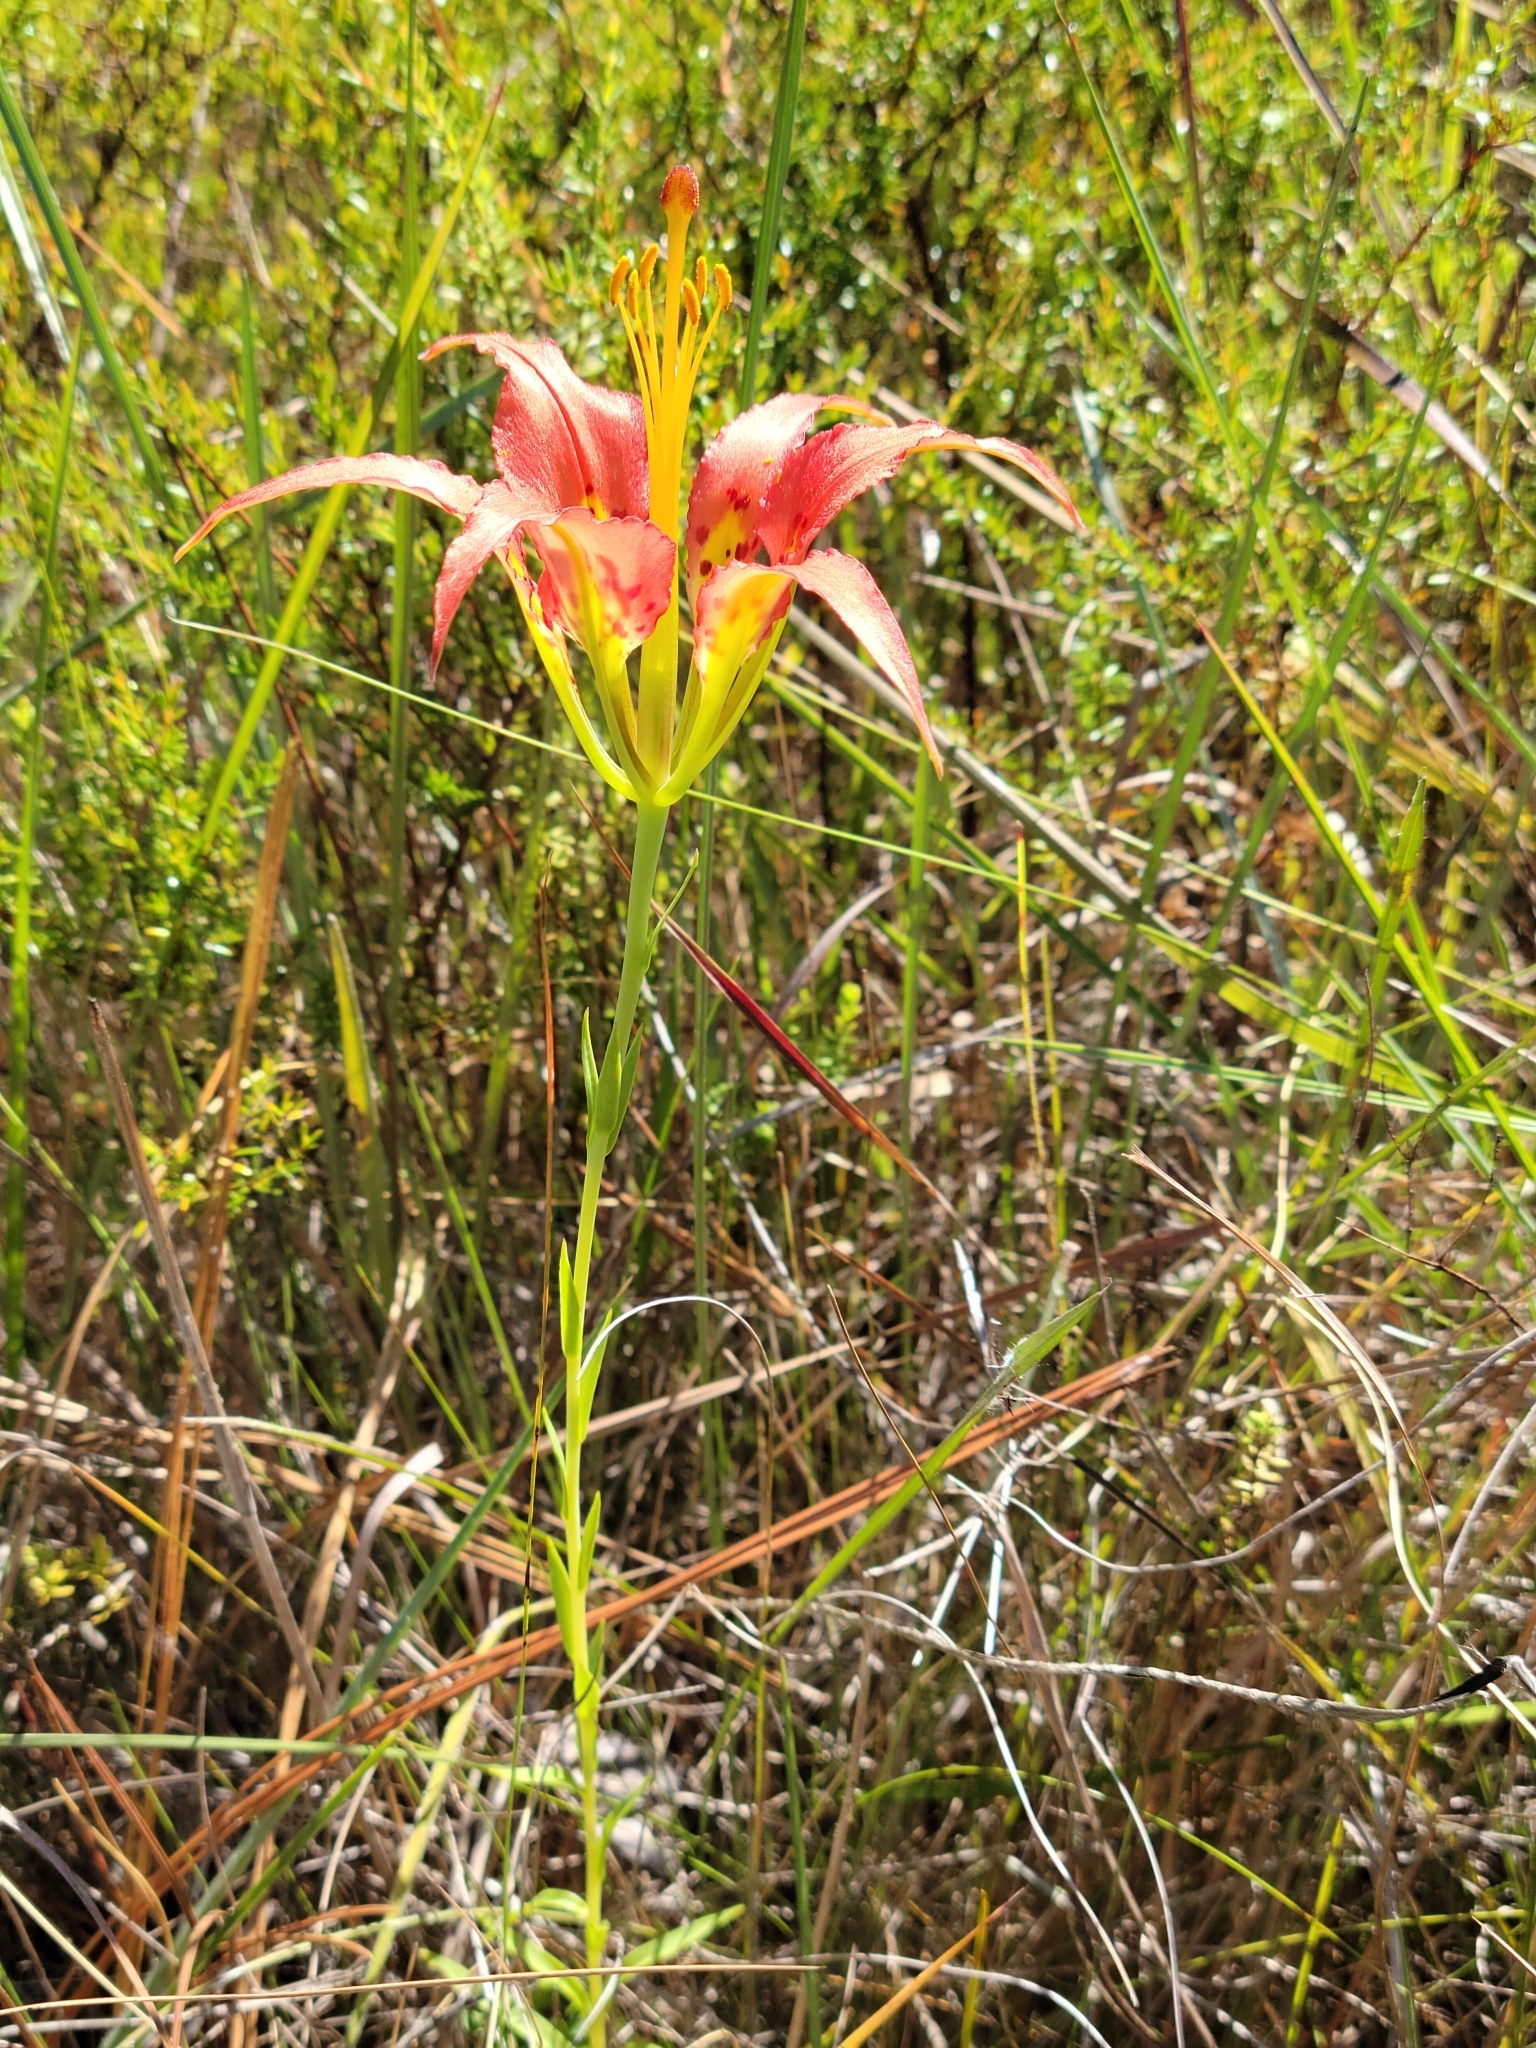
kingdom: Plantae
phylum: Tracheophyta
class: Liliopsida
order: Liliales
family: Liliaceae
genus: Lilium
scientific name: Lilium catesbaei
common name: Catesby's lily
